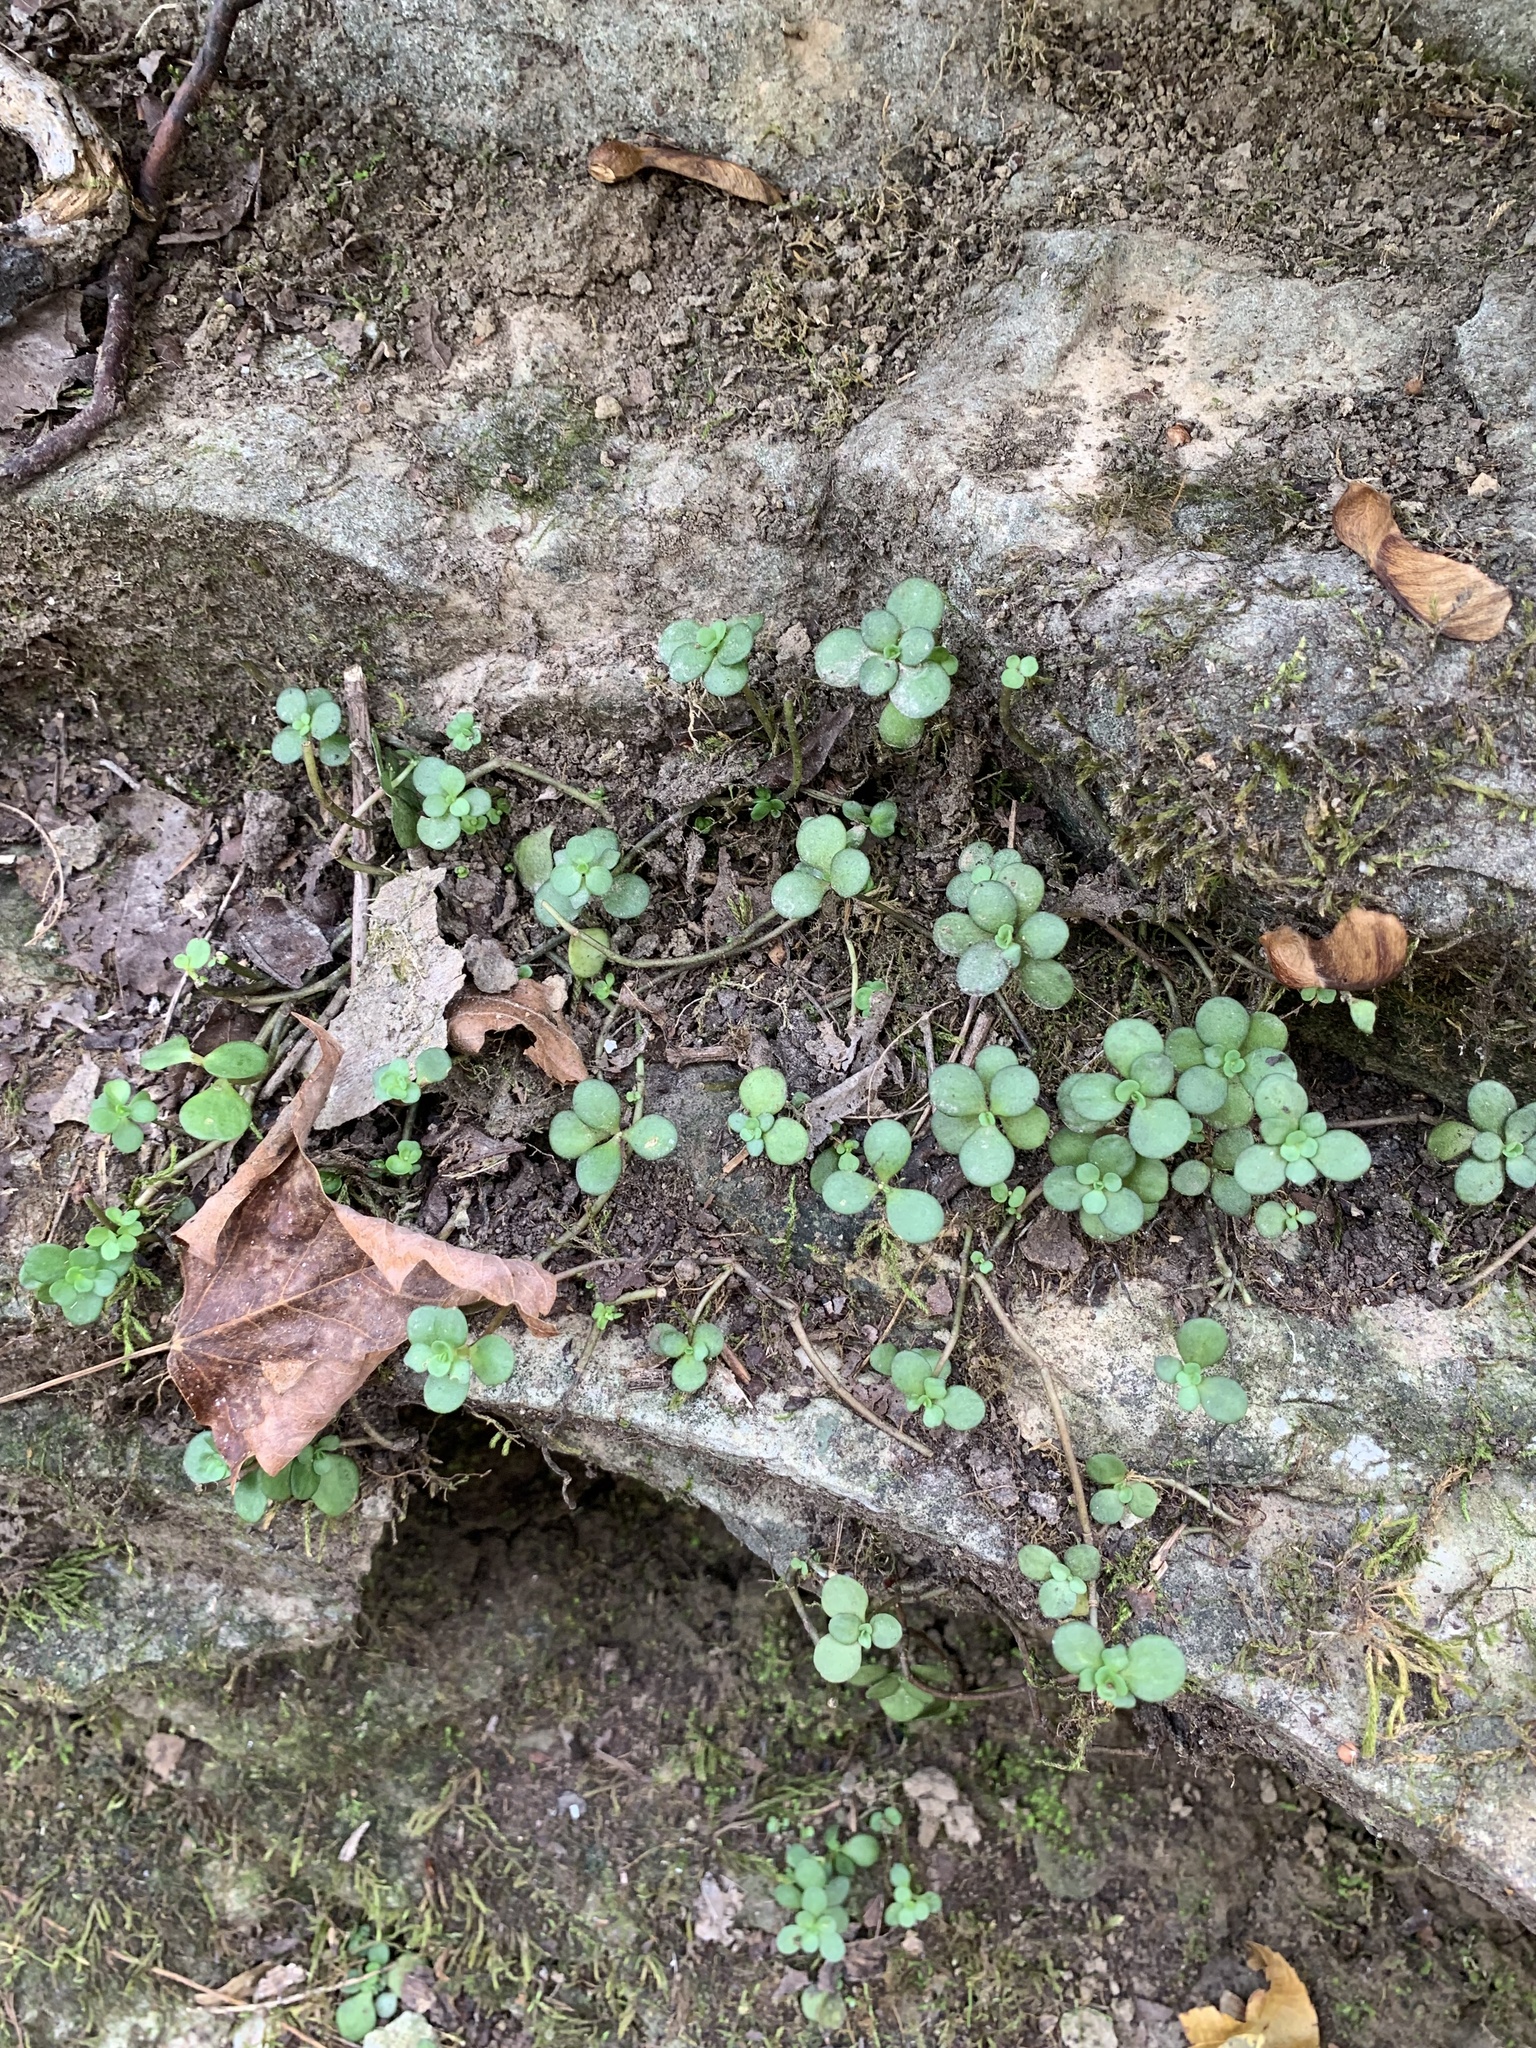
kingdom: Plantae
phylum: Tracheophyta
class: Magnoliopsida
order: Saxifragales
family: Crassulaceae
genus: Sedum
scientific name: Sedum ternatum
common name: Wild stonecrop
